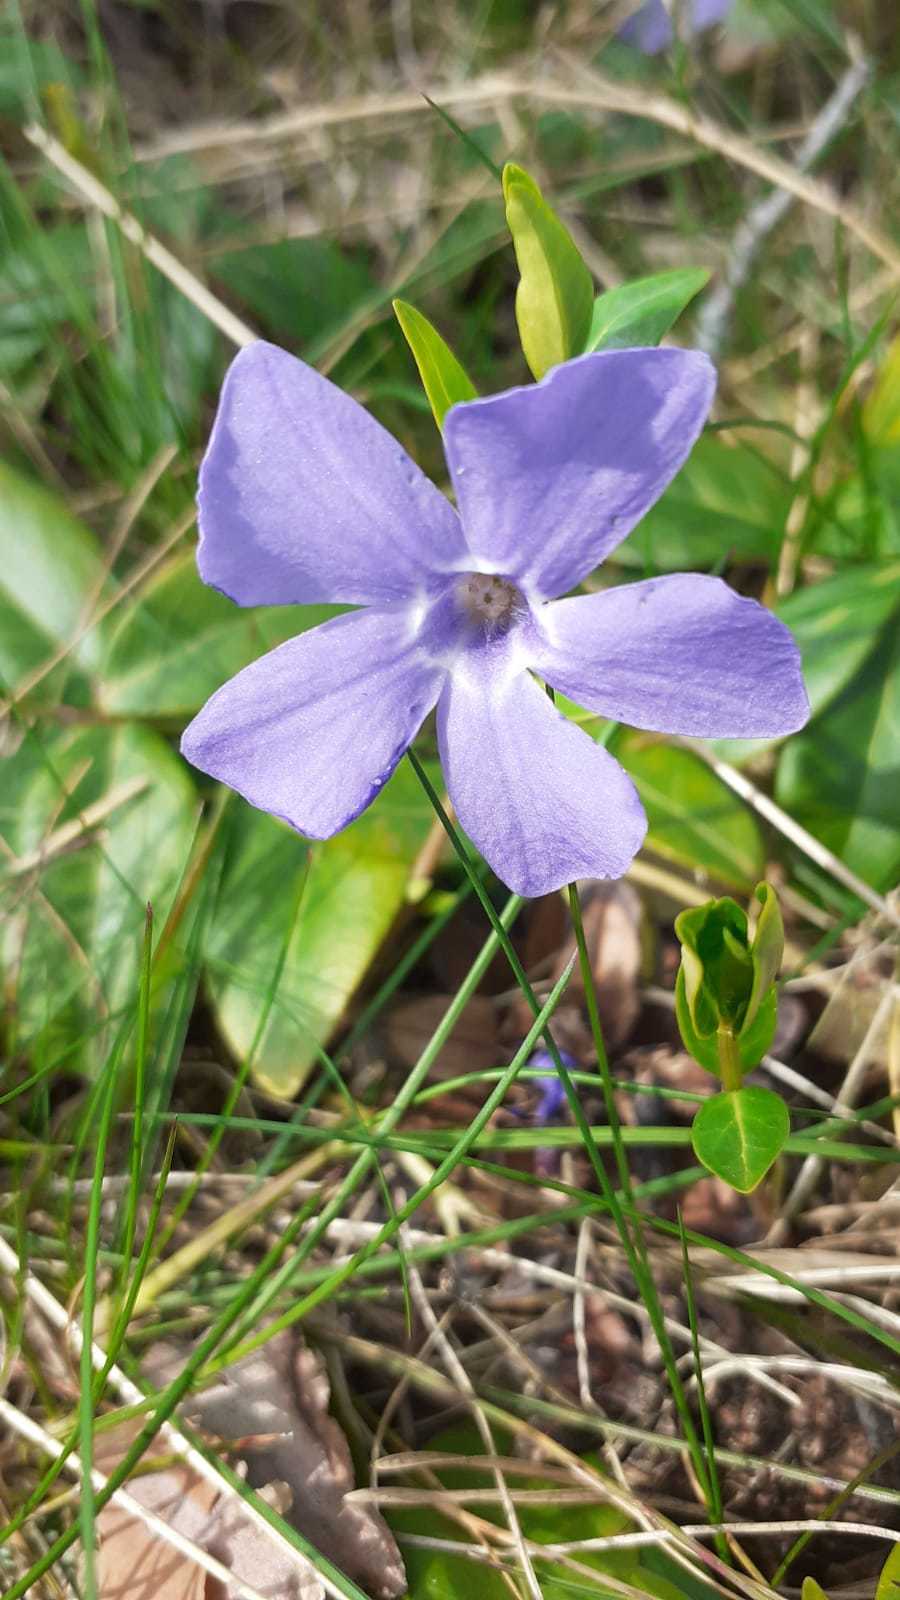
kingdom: Plantae
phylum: Tracheophyta
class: Magnoliopsida
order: Gentianales
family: Apocynaceae
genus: Vinca
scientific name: Vinca minor
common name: Lesser periwinkle
